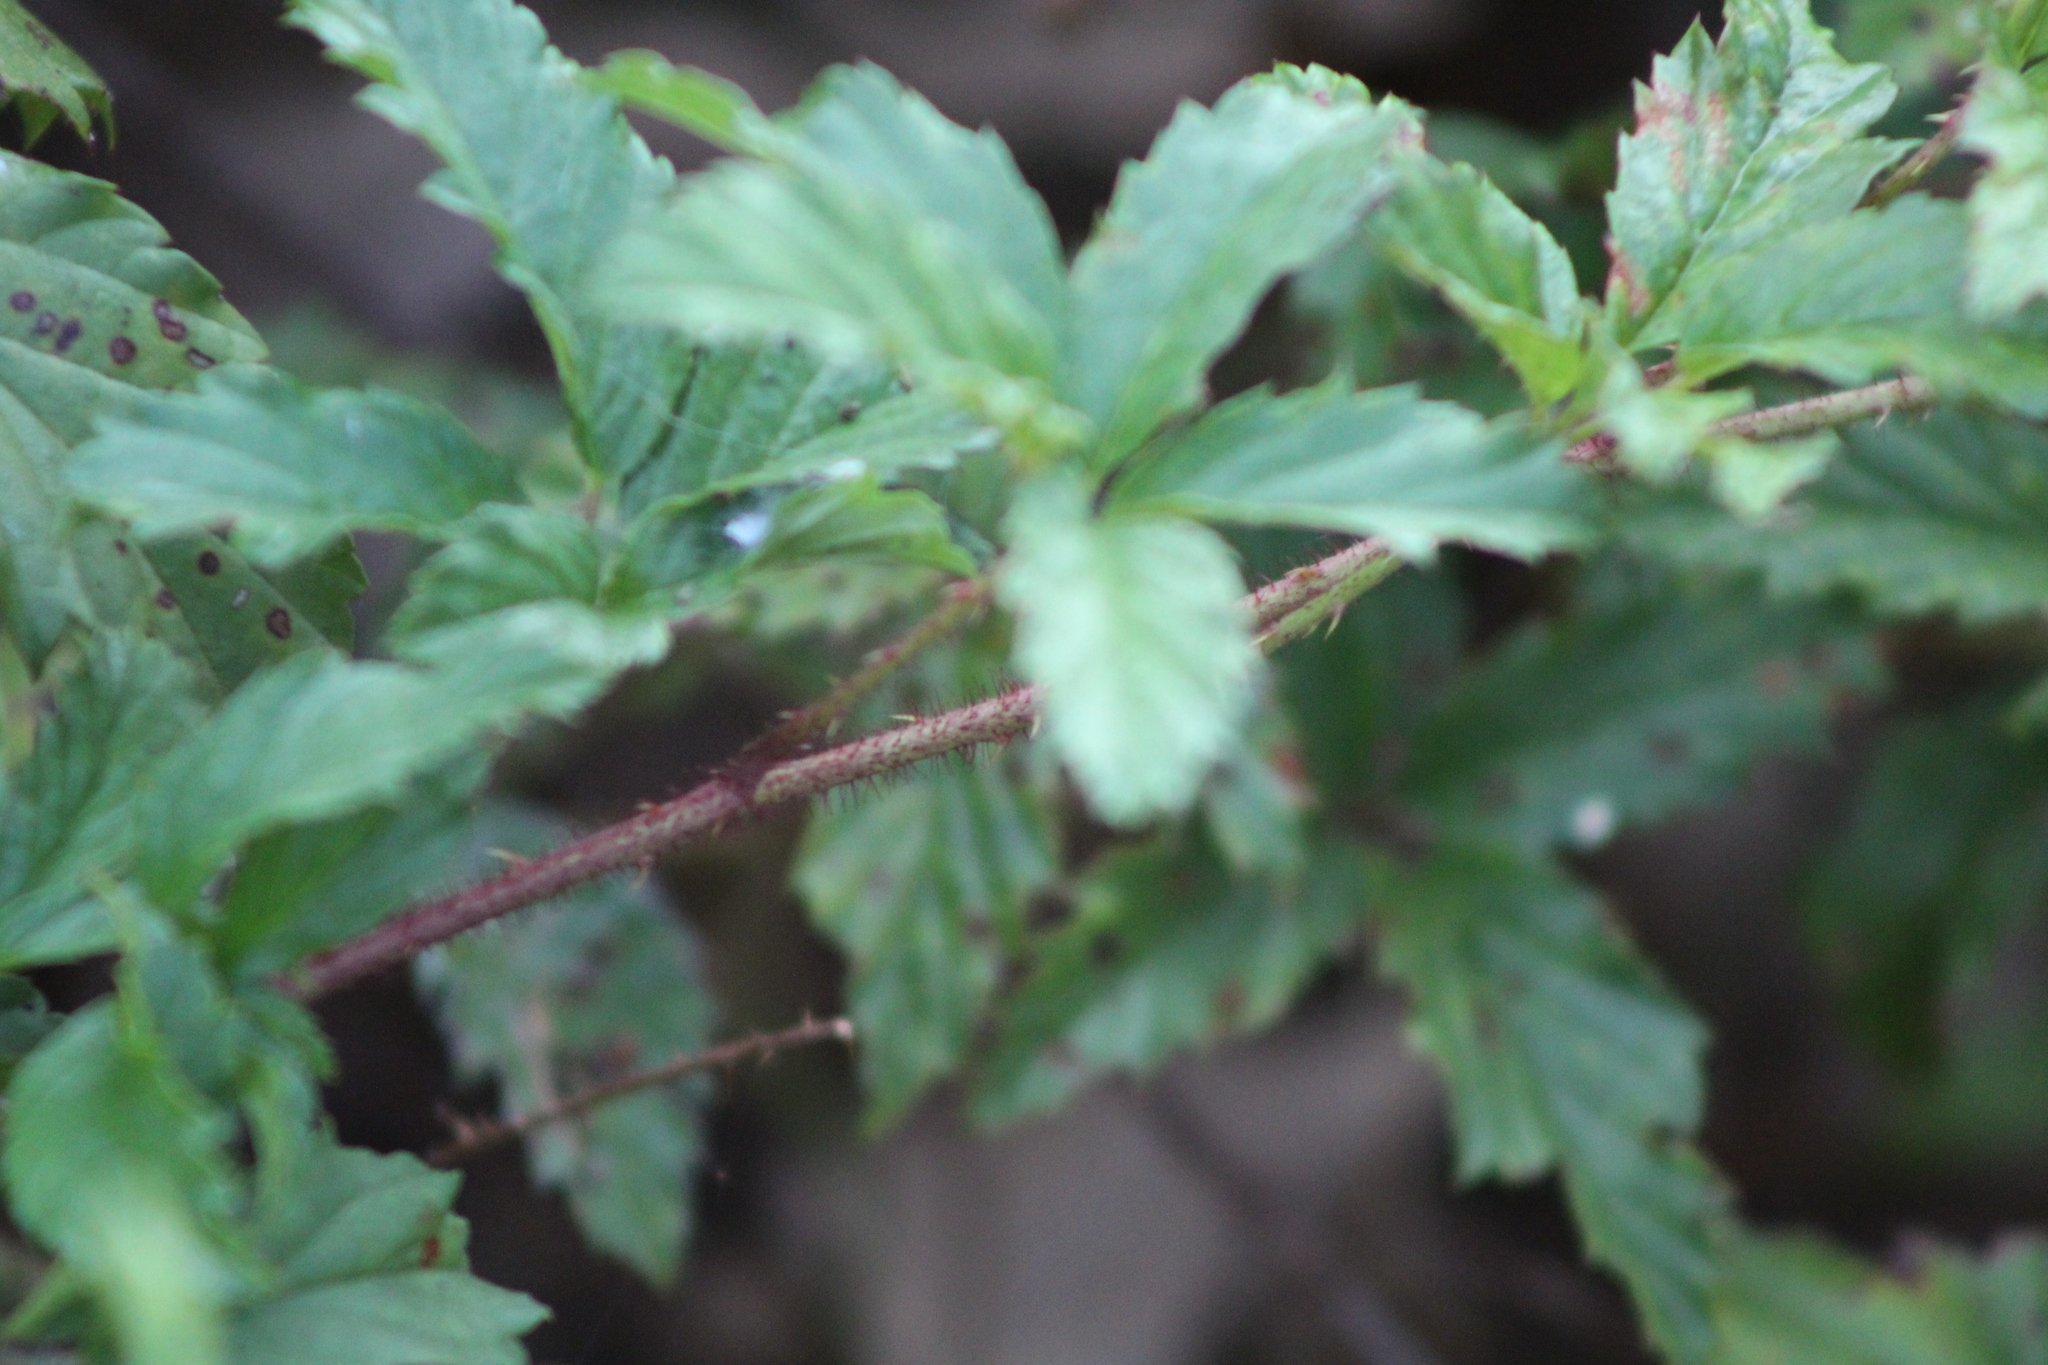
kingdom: Plantae
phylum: Tracheophyta
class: Magnoliopsida
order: Rosales
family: Rosaceae
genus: Rubus
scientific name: Rubus trivialis
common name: Southern dewberry
